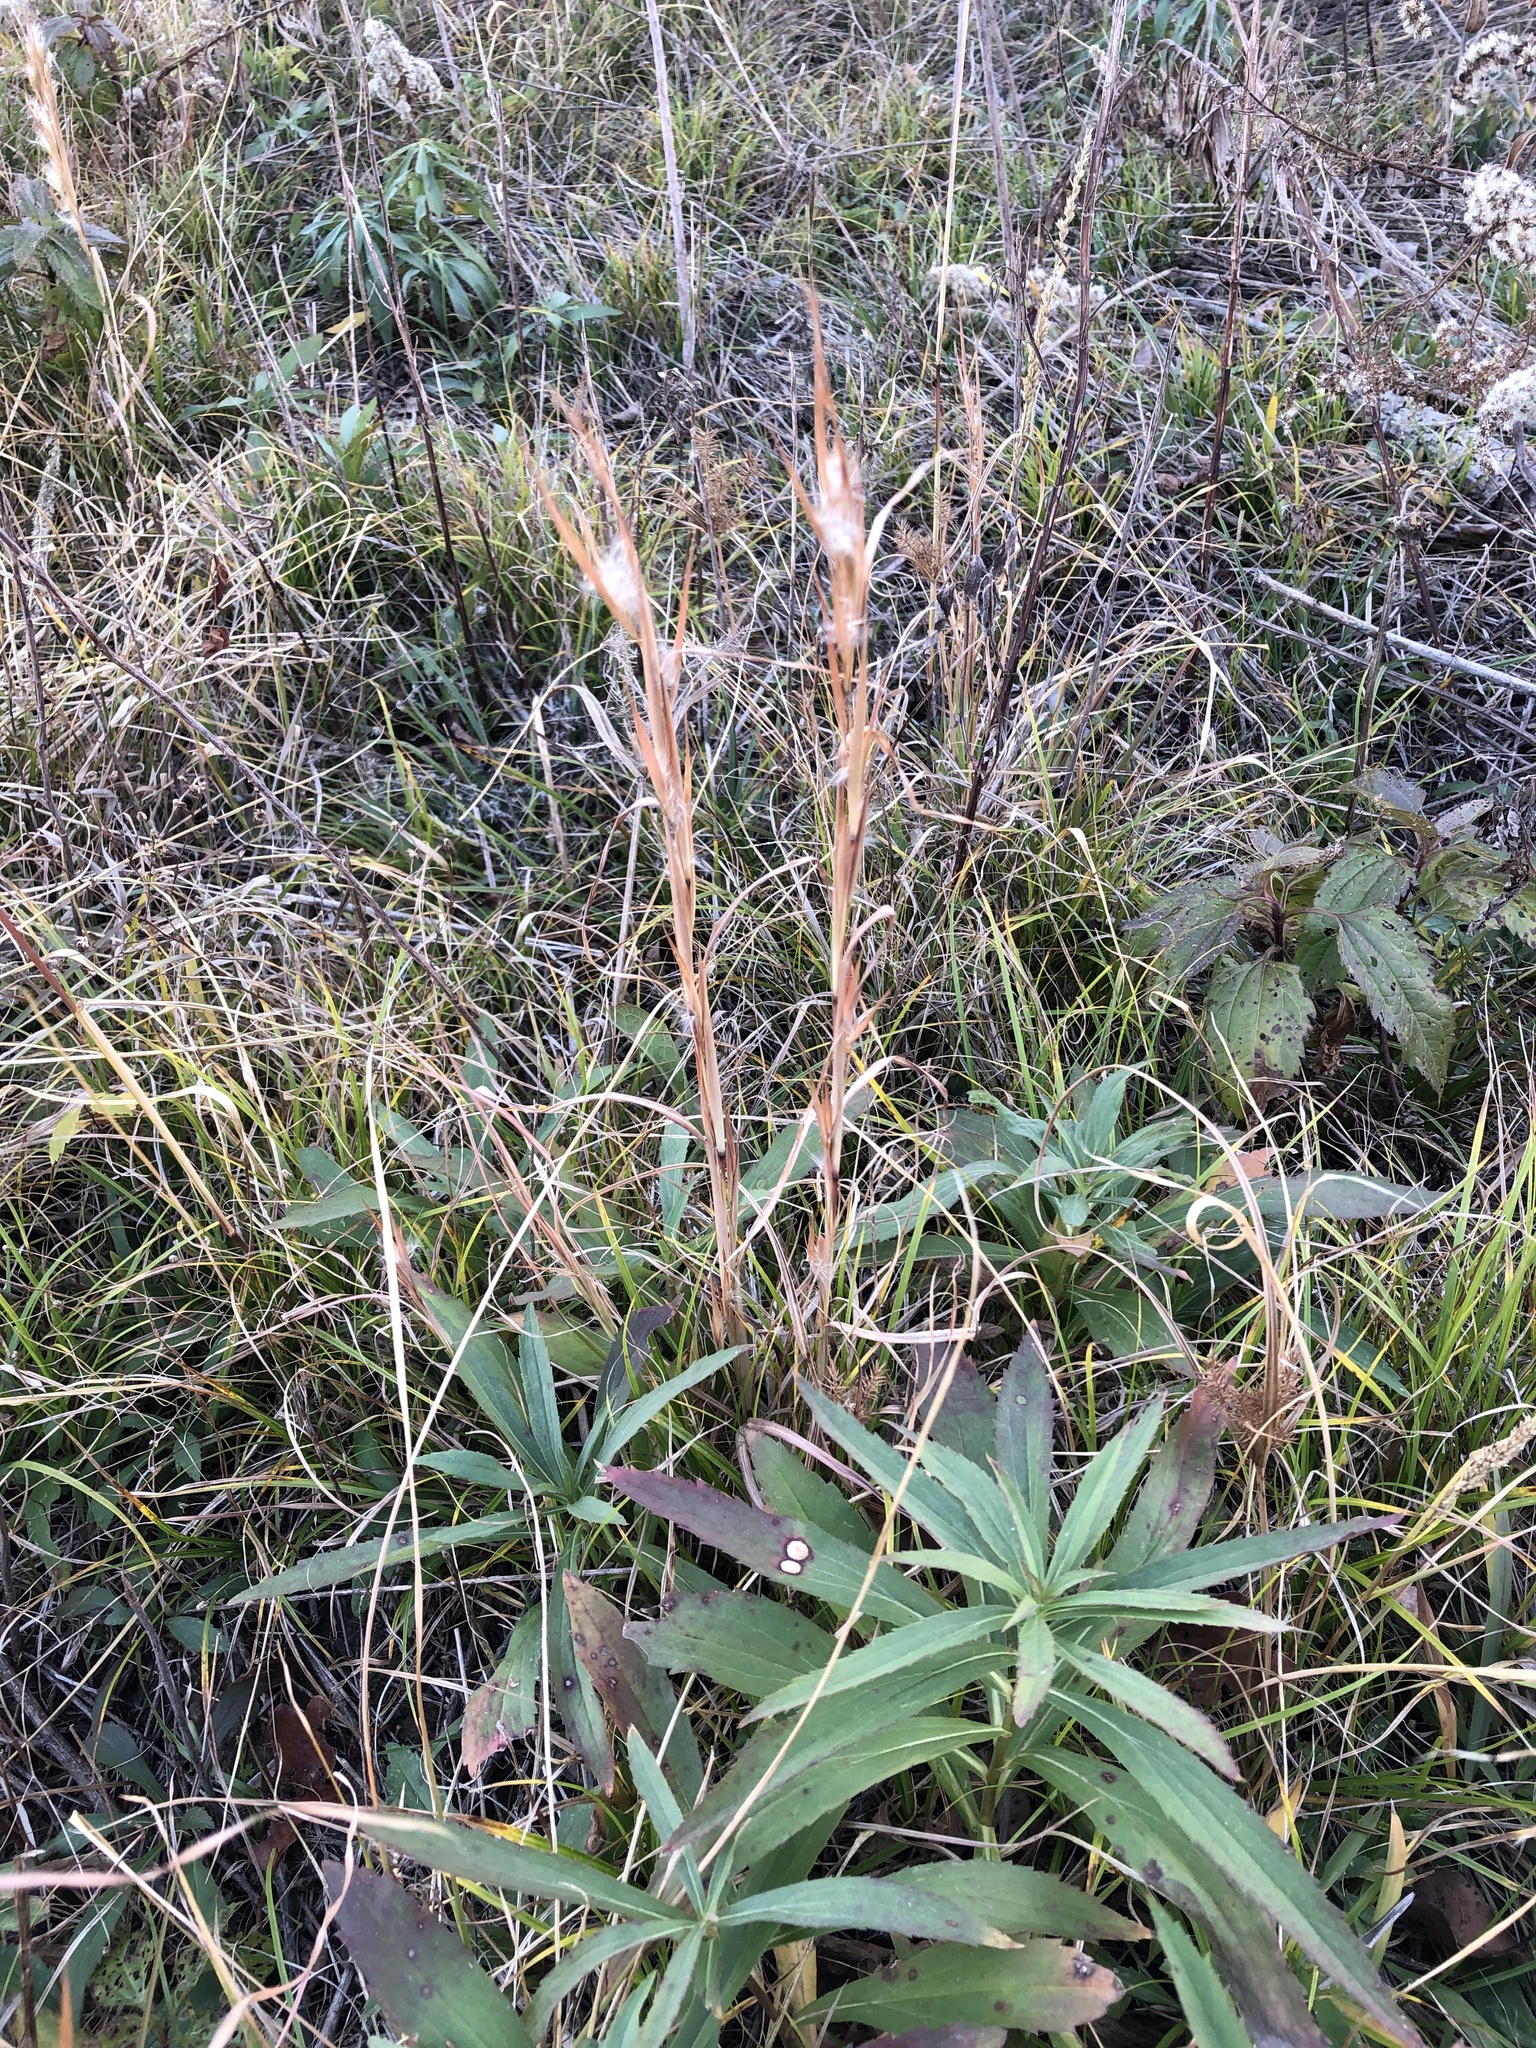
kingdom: Plantae
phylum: Tracheophyta
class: Liliopsida
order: Poales
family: Poaceae
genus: Andropogon
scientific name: Andropogon virginicus
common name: Broomsedge bluestem
